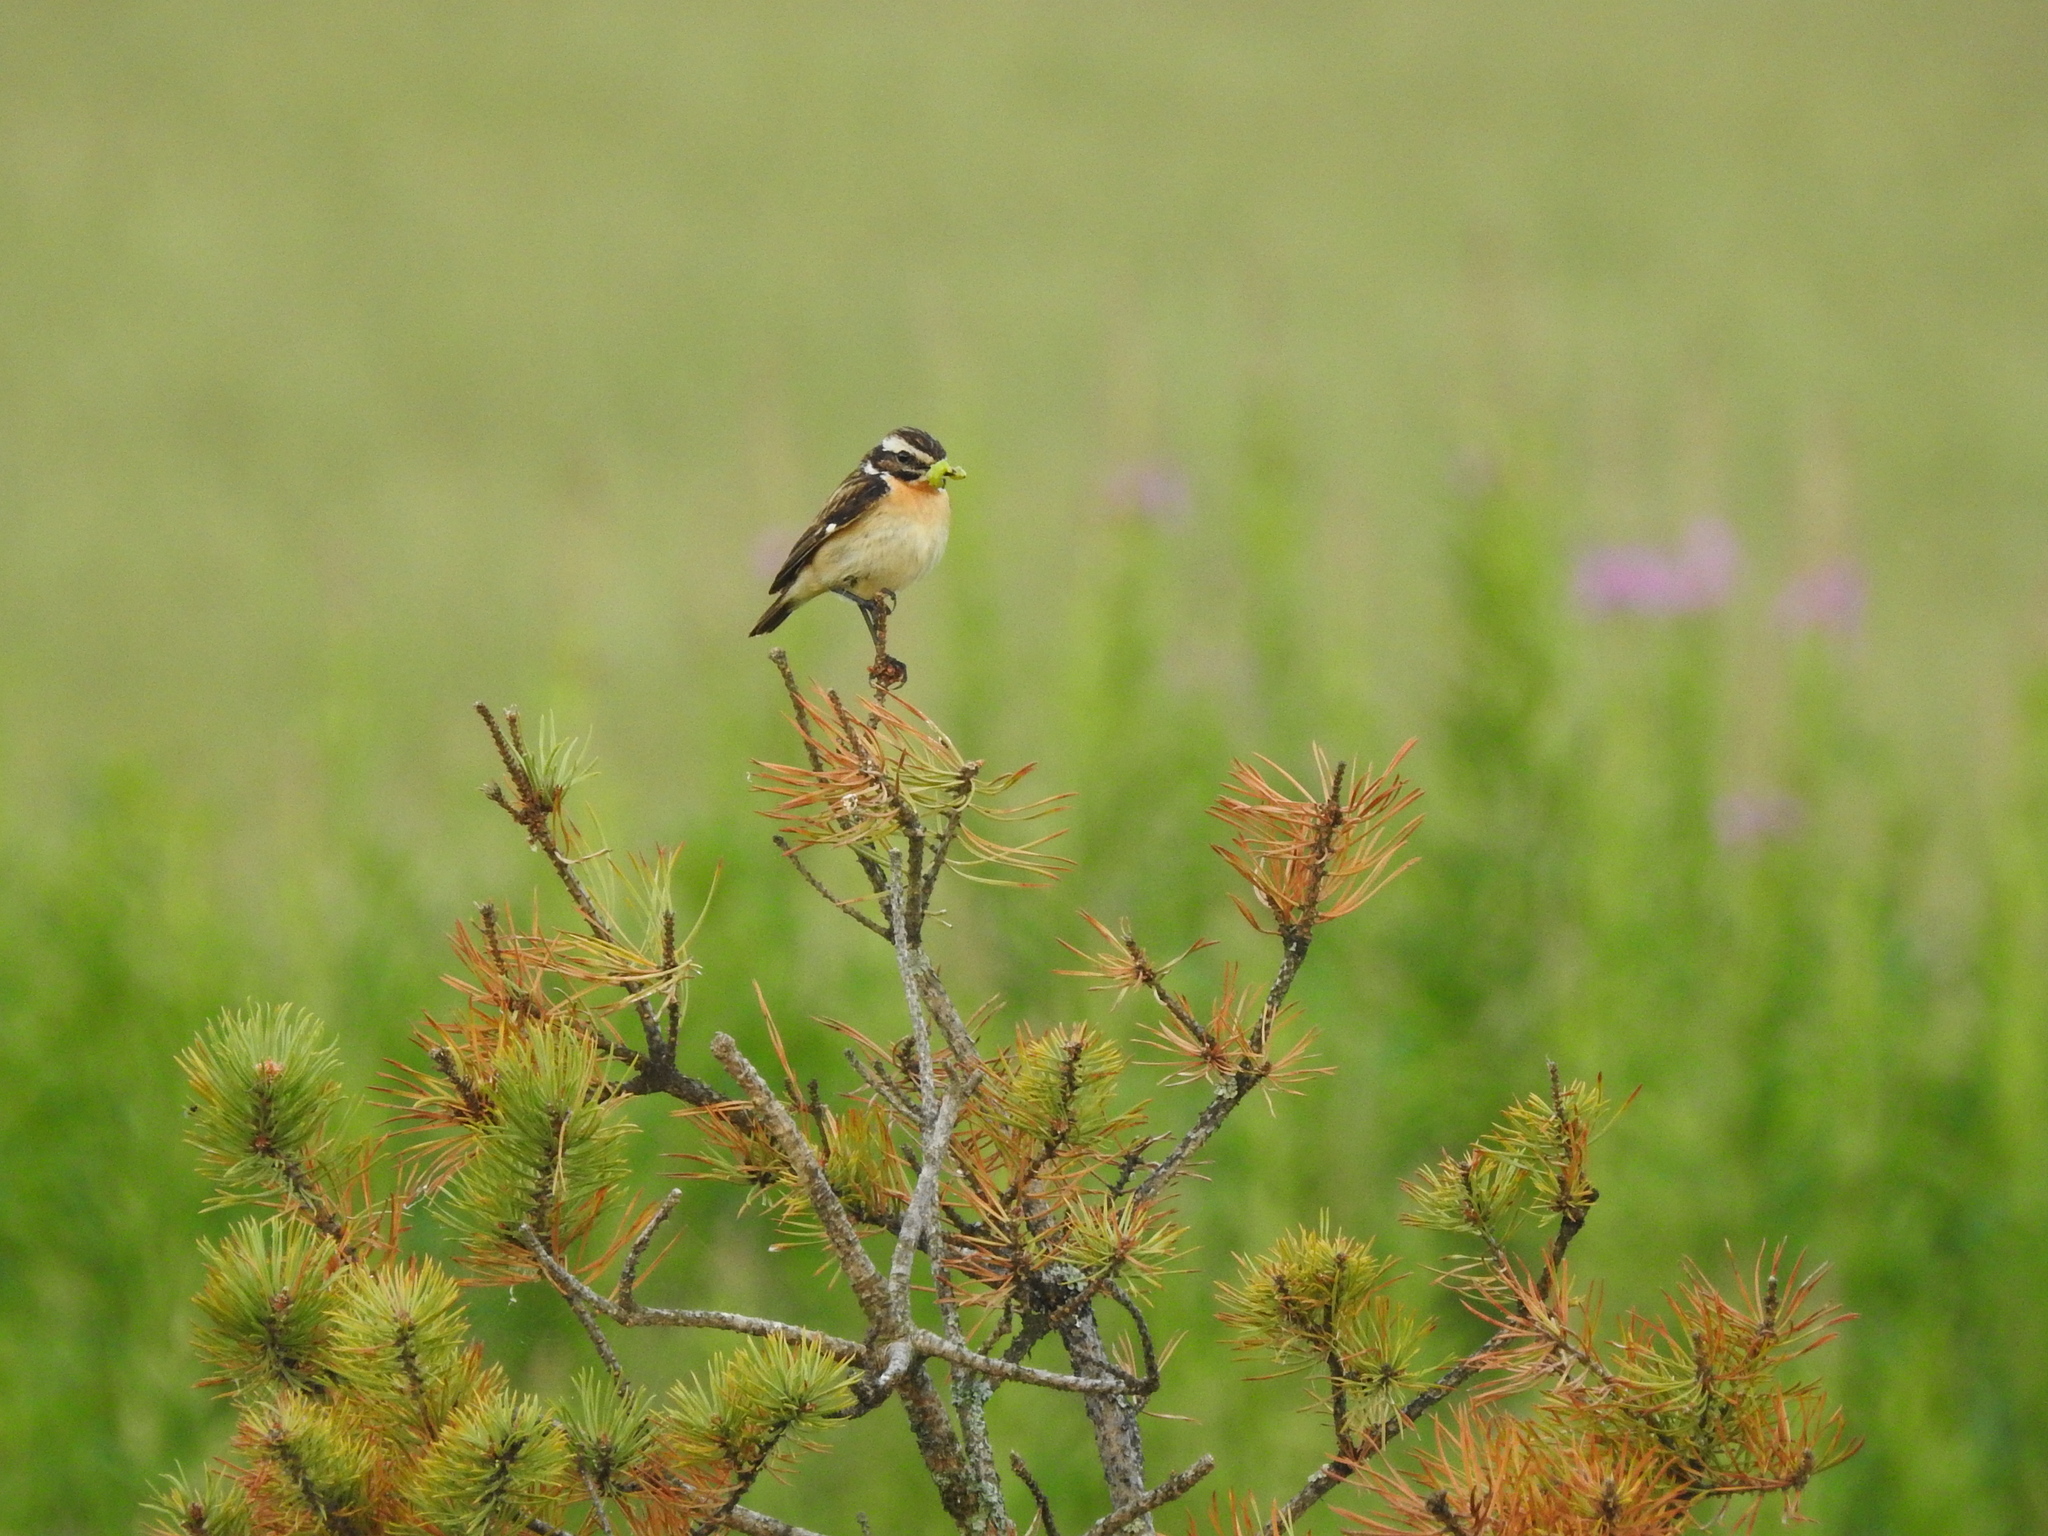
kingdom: Animalia
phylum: Chordata
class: Aves
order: Passeriformes
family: Muscicapidae
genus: Saxicola
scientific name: Saxicola rubetra
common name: Whinchat
